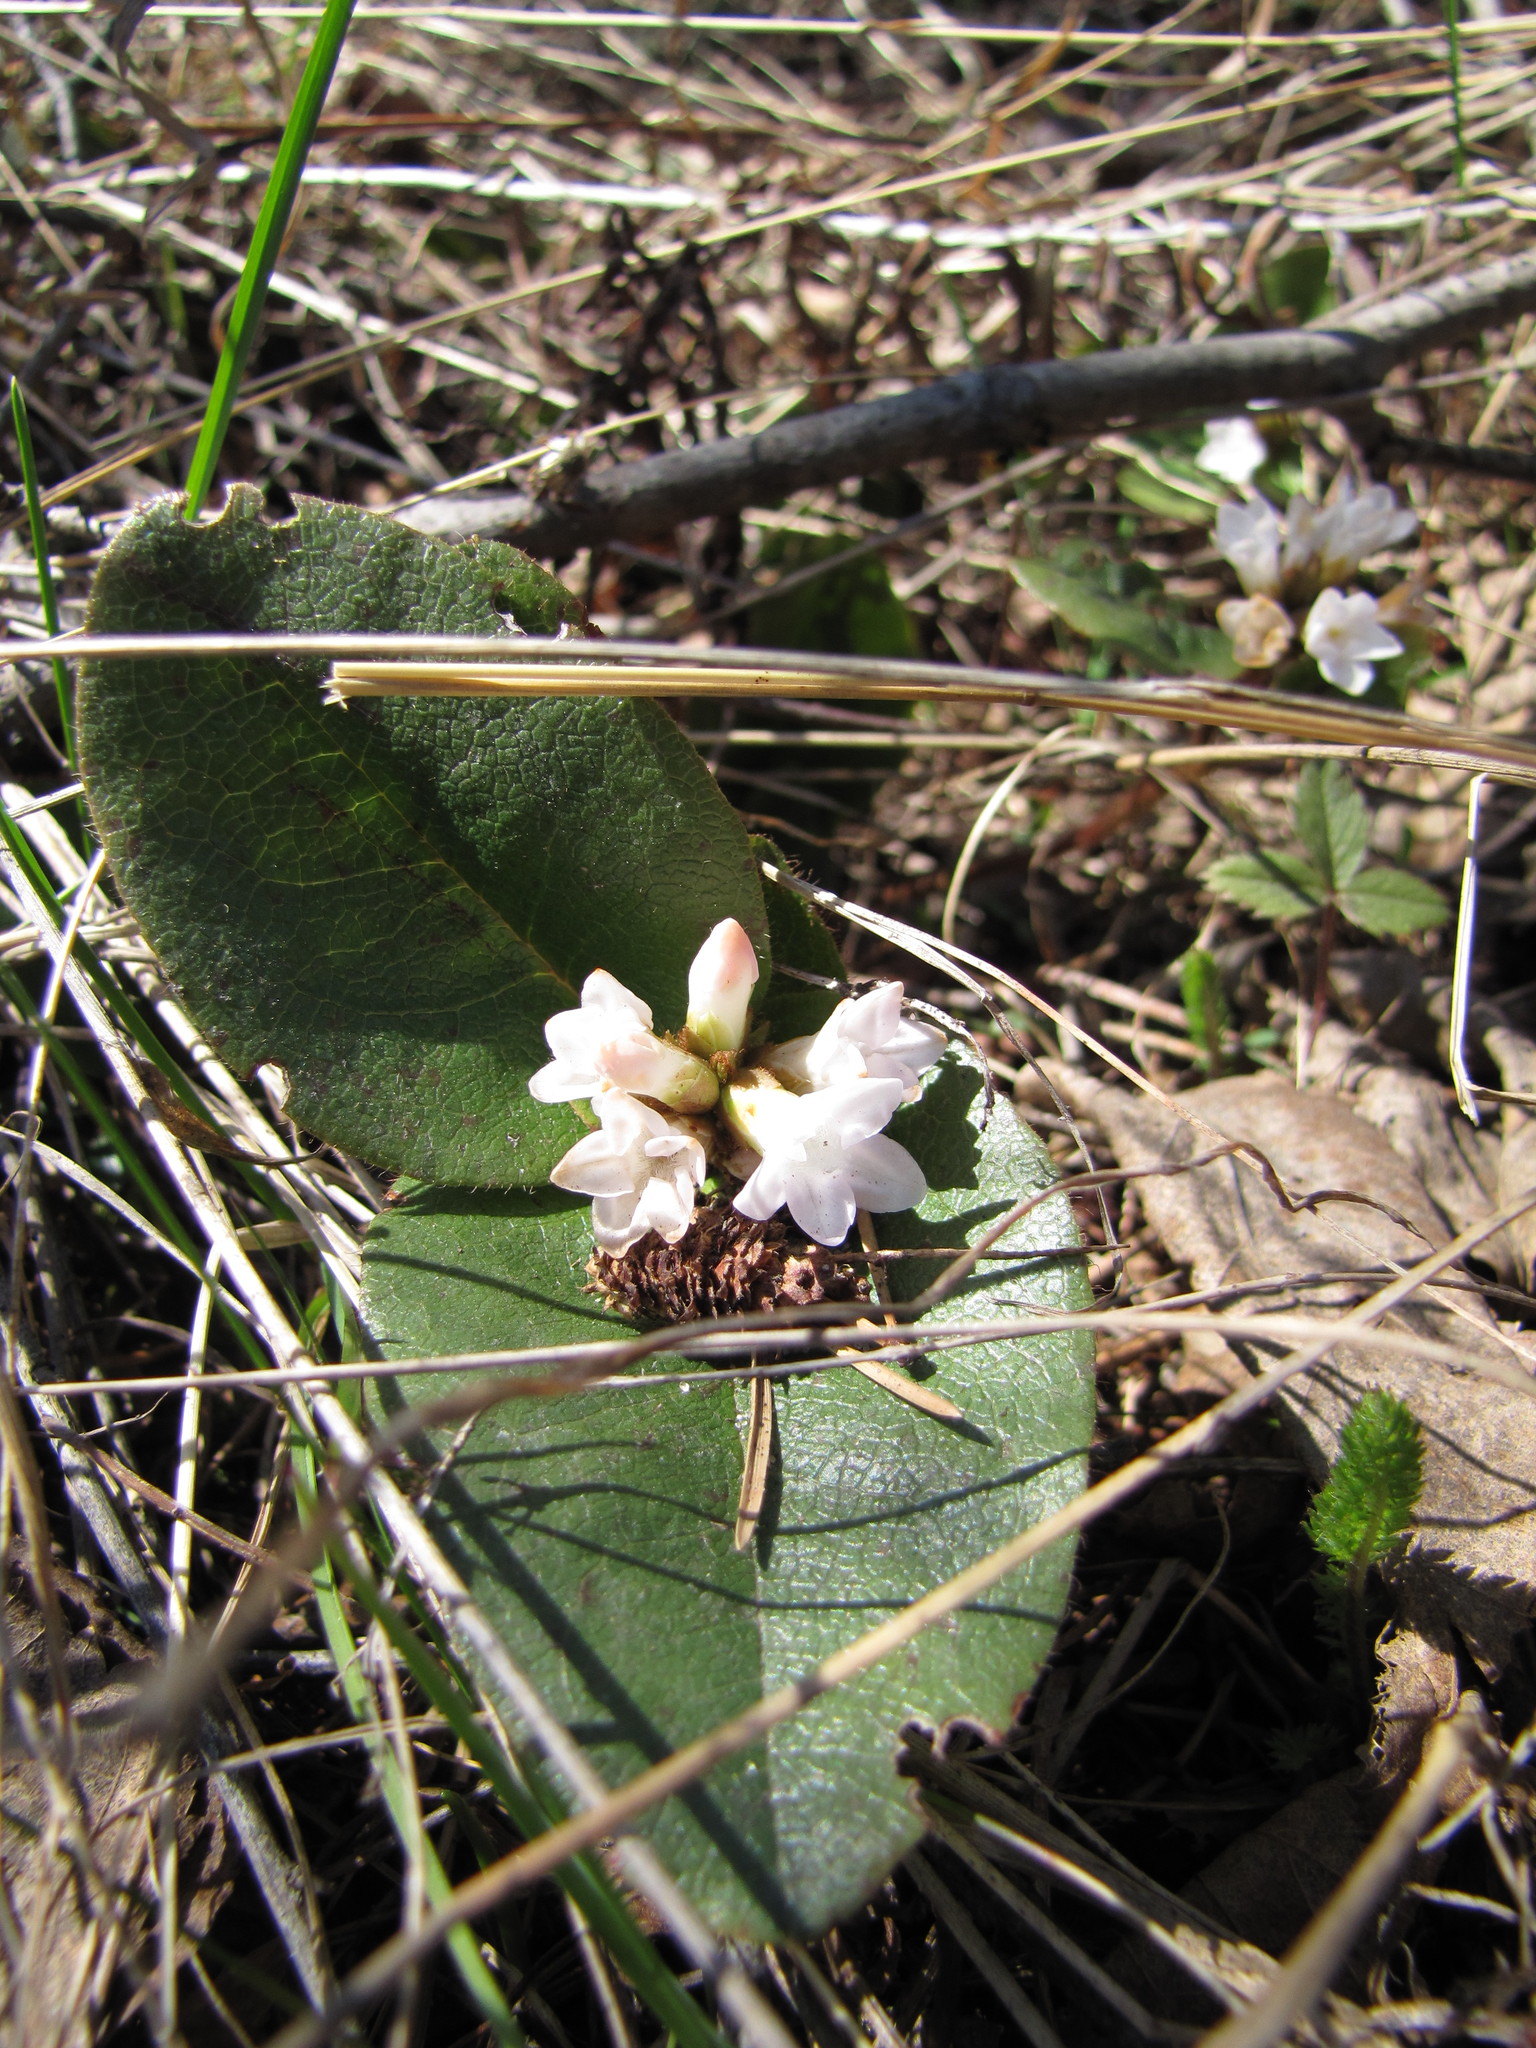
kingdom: Plantae
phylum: Tracheophyta
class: Magnoliopsida
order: Ericales
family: Ericaceae
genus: Epigaea
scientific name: Epigaea repens
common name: Gravelroot
